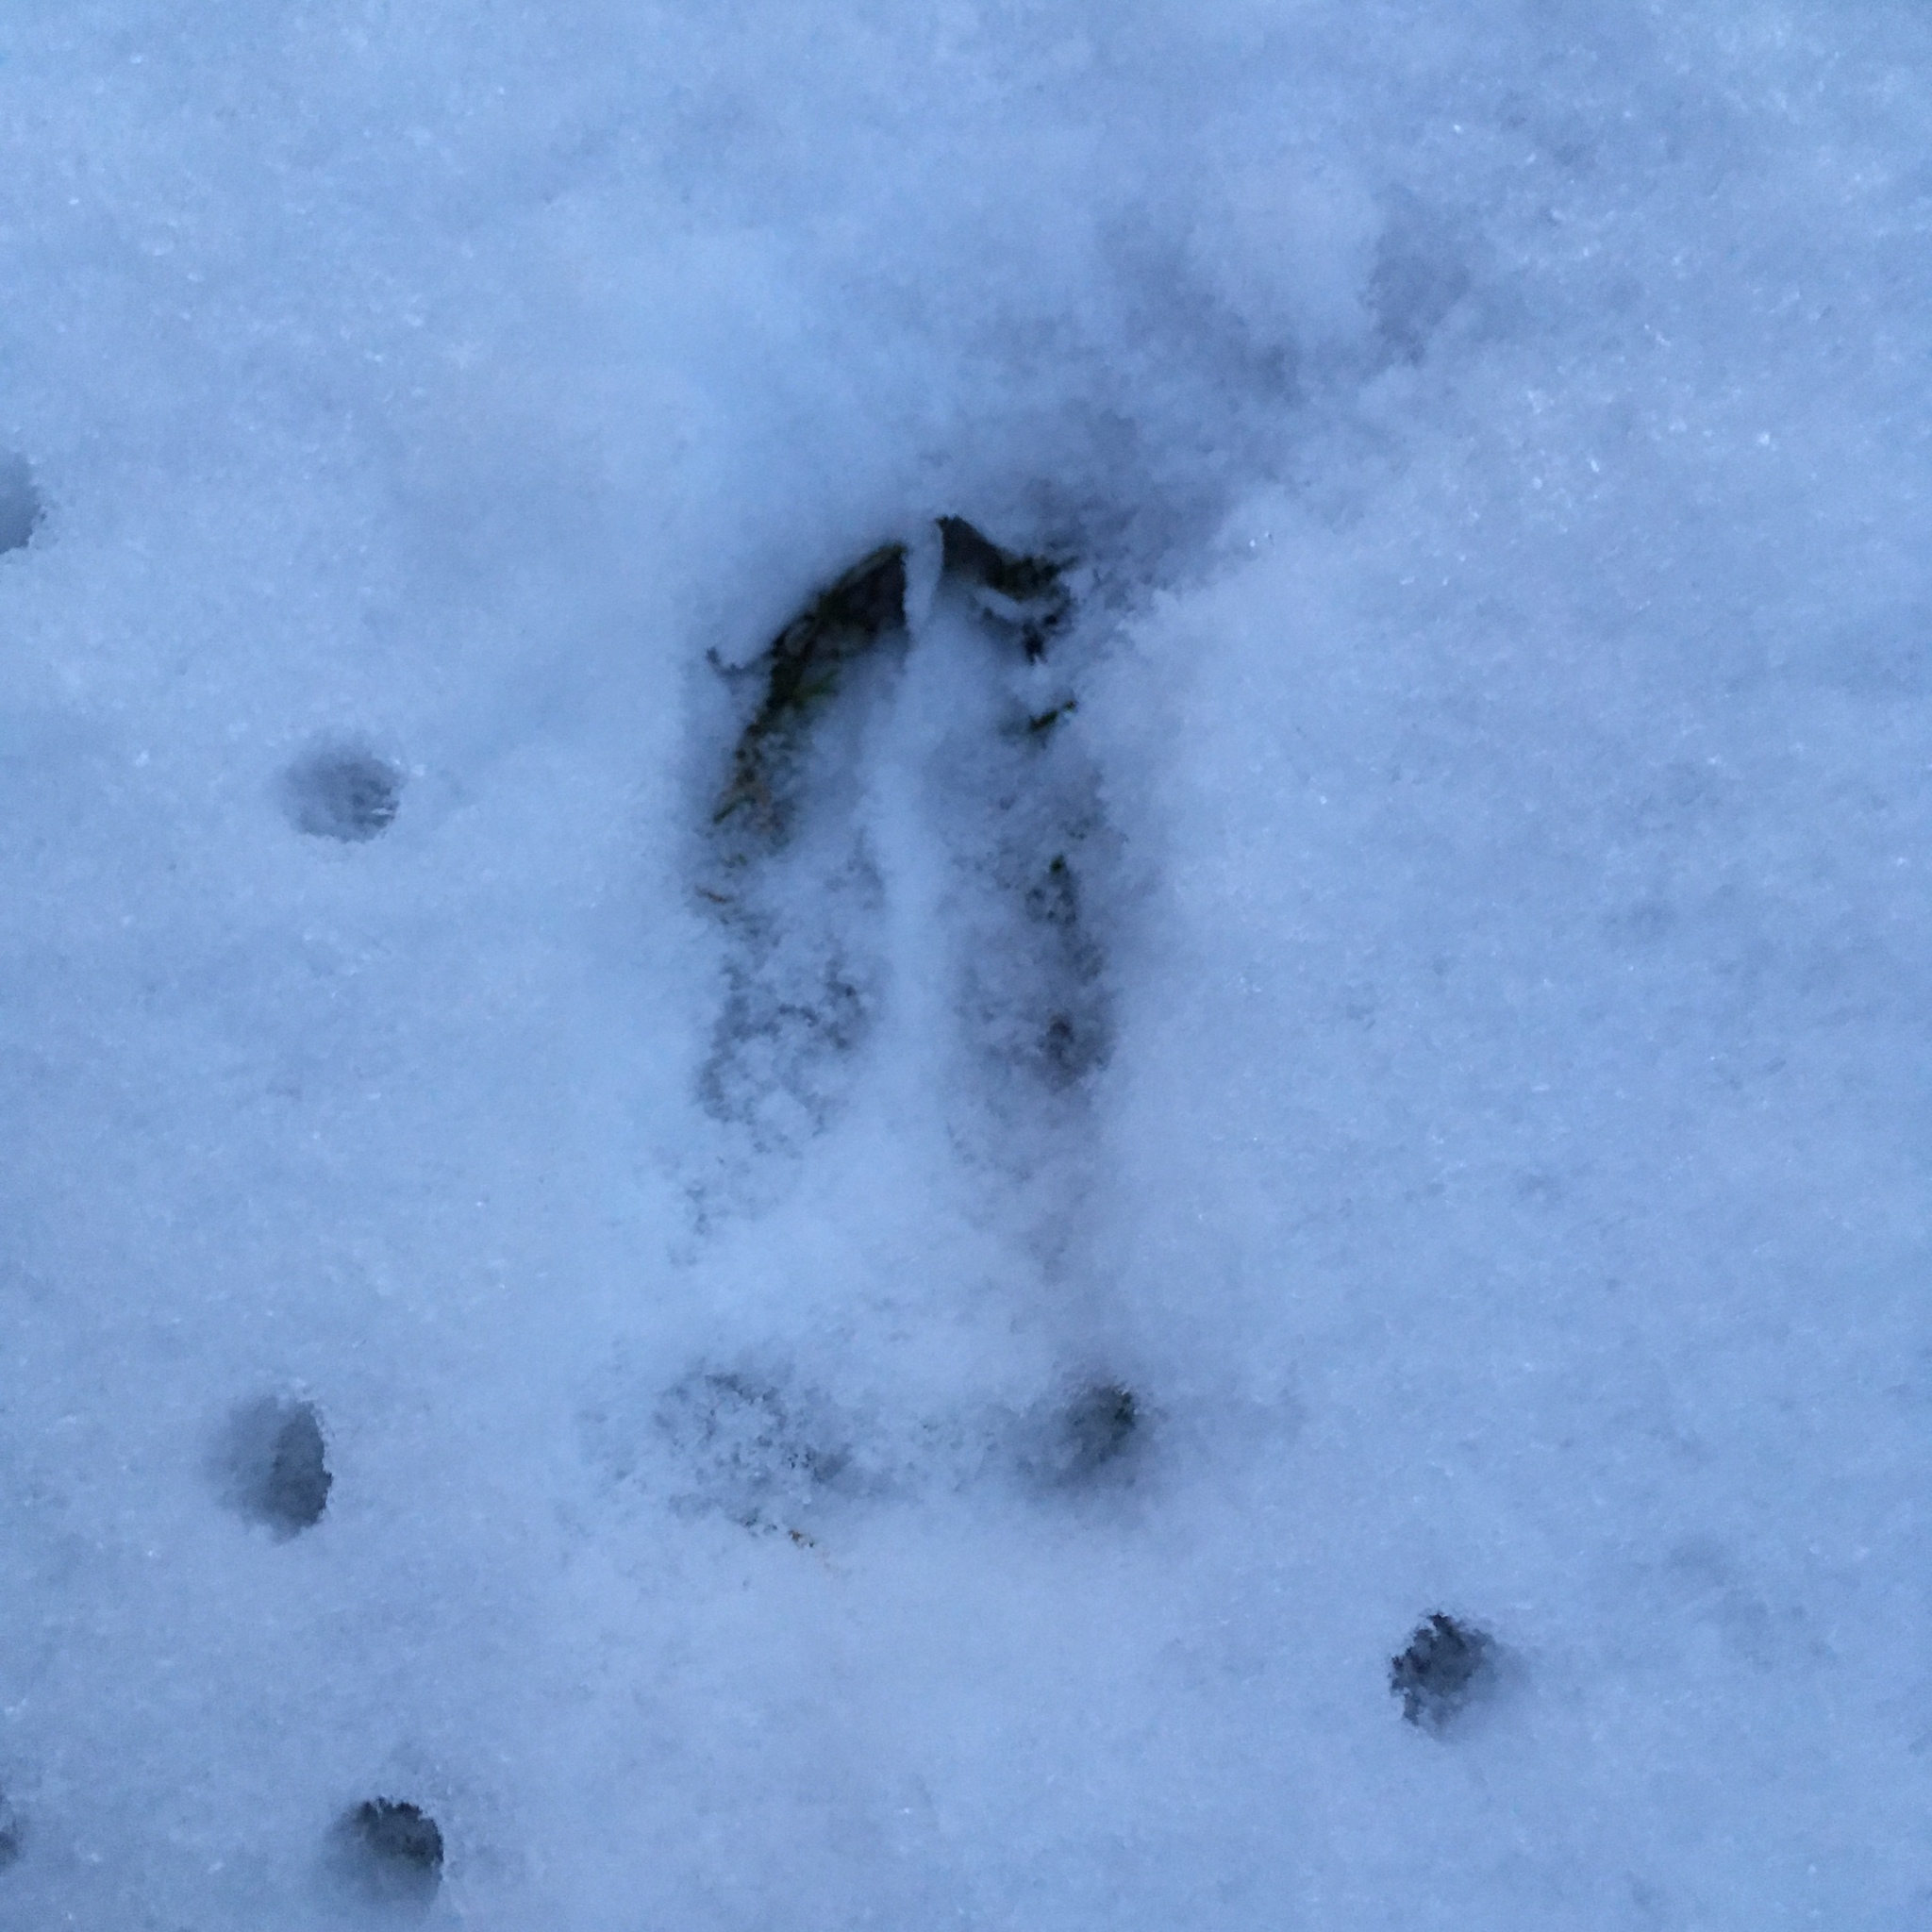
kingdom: Animalia
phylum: Chordata
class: Mammalia
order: Artiodactyla
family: Cervidae
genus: Capreolus
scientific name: Capreolus capreolus
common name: Western roe deer
